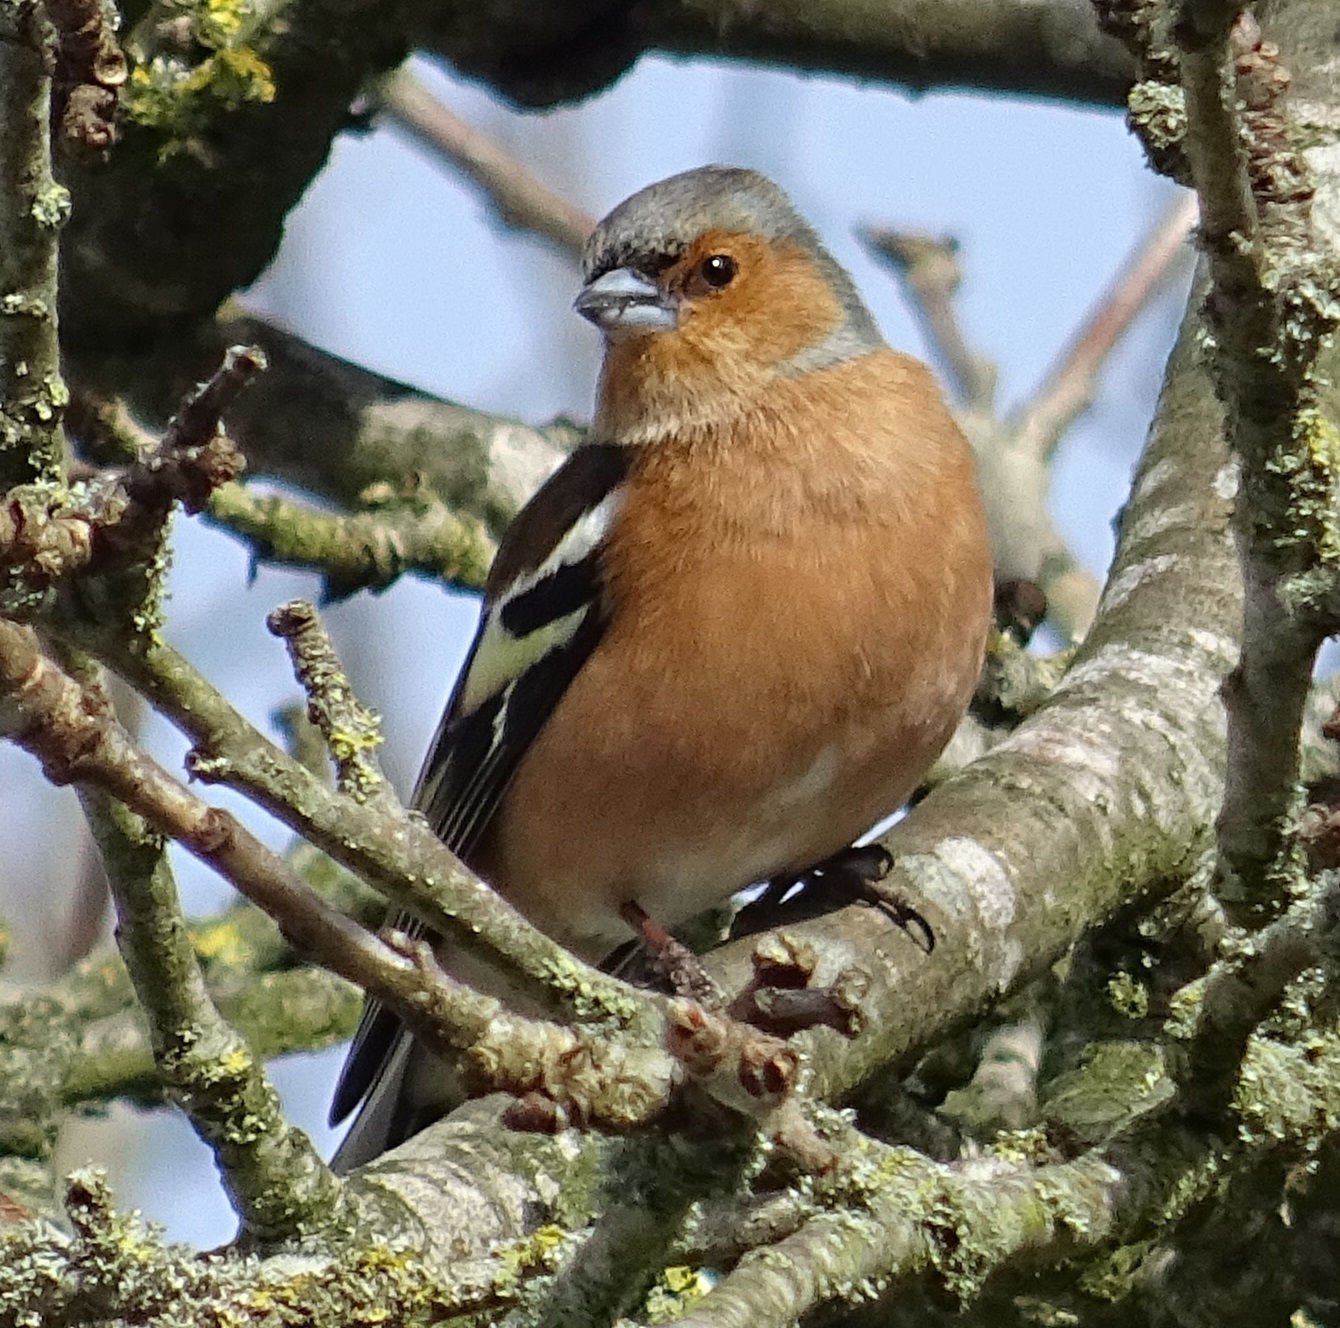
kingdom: Animalia
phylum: Chordata
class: Aves
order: Passeriformes
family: Fringillidae
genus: Fringilla
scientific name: Fringilla coelebs
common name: Common chaffinch
